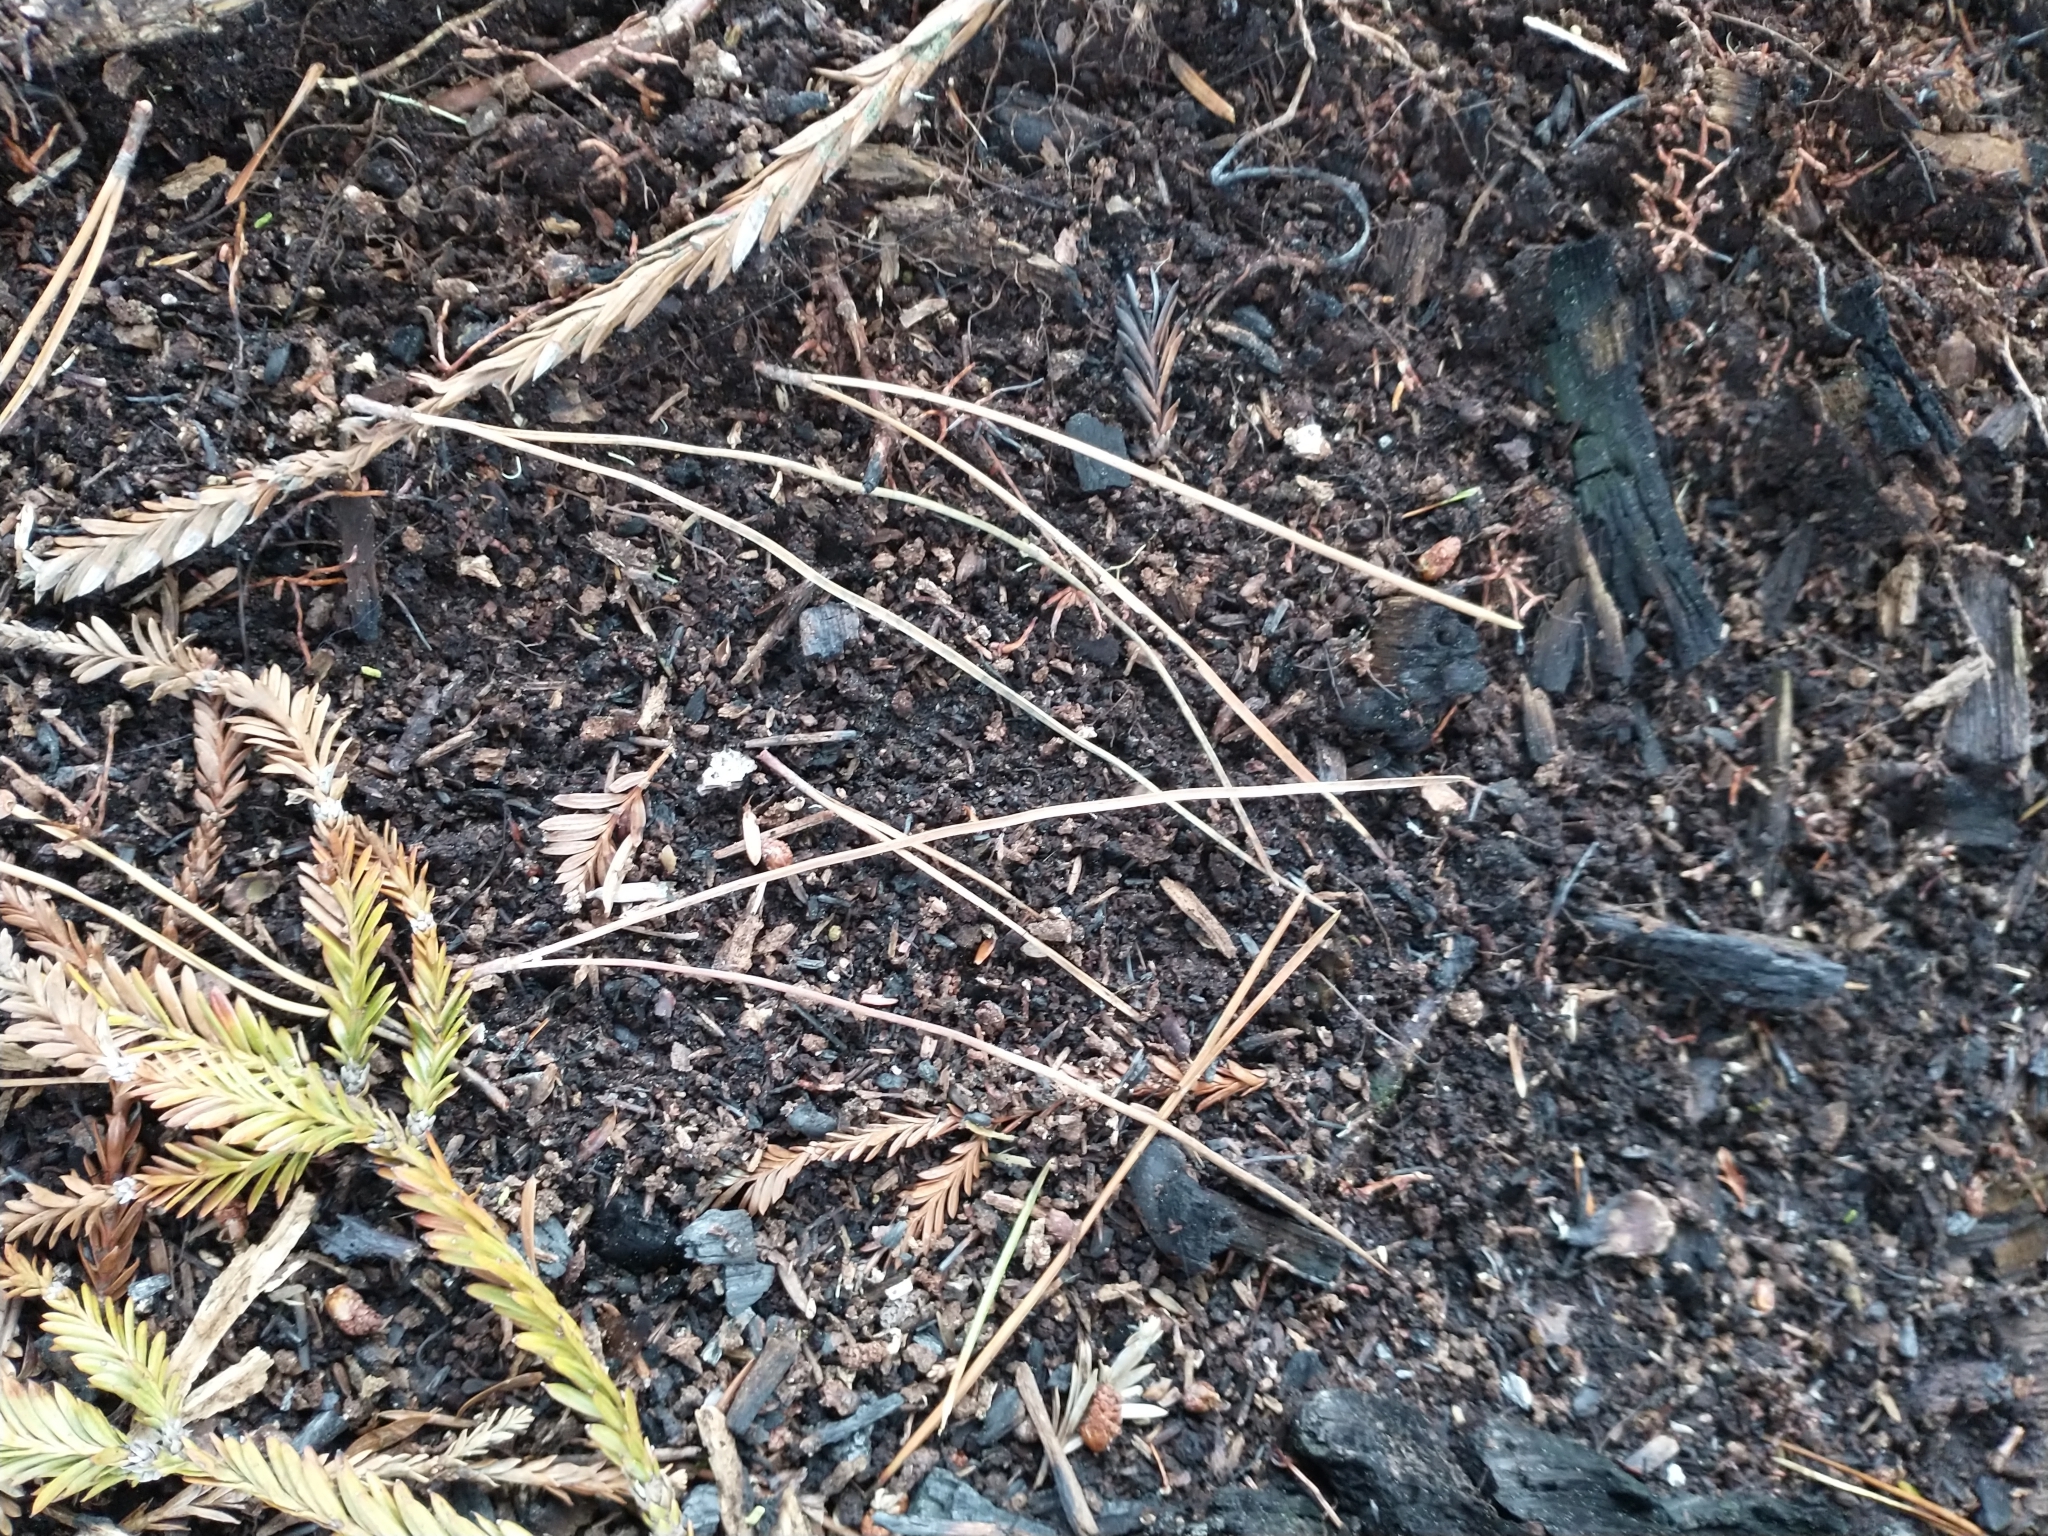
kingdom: Plantae
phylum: Tracheophyta
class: Pinopsida
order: Pinales
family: Pinaceae
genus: Pinus
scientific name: Pinus muricata
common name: Bishop pine
